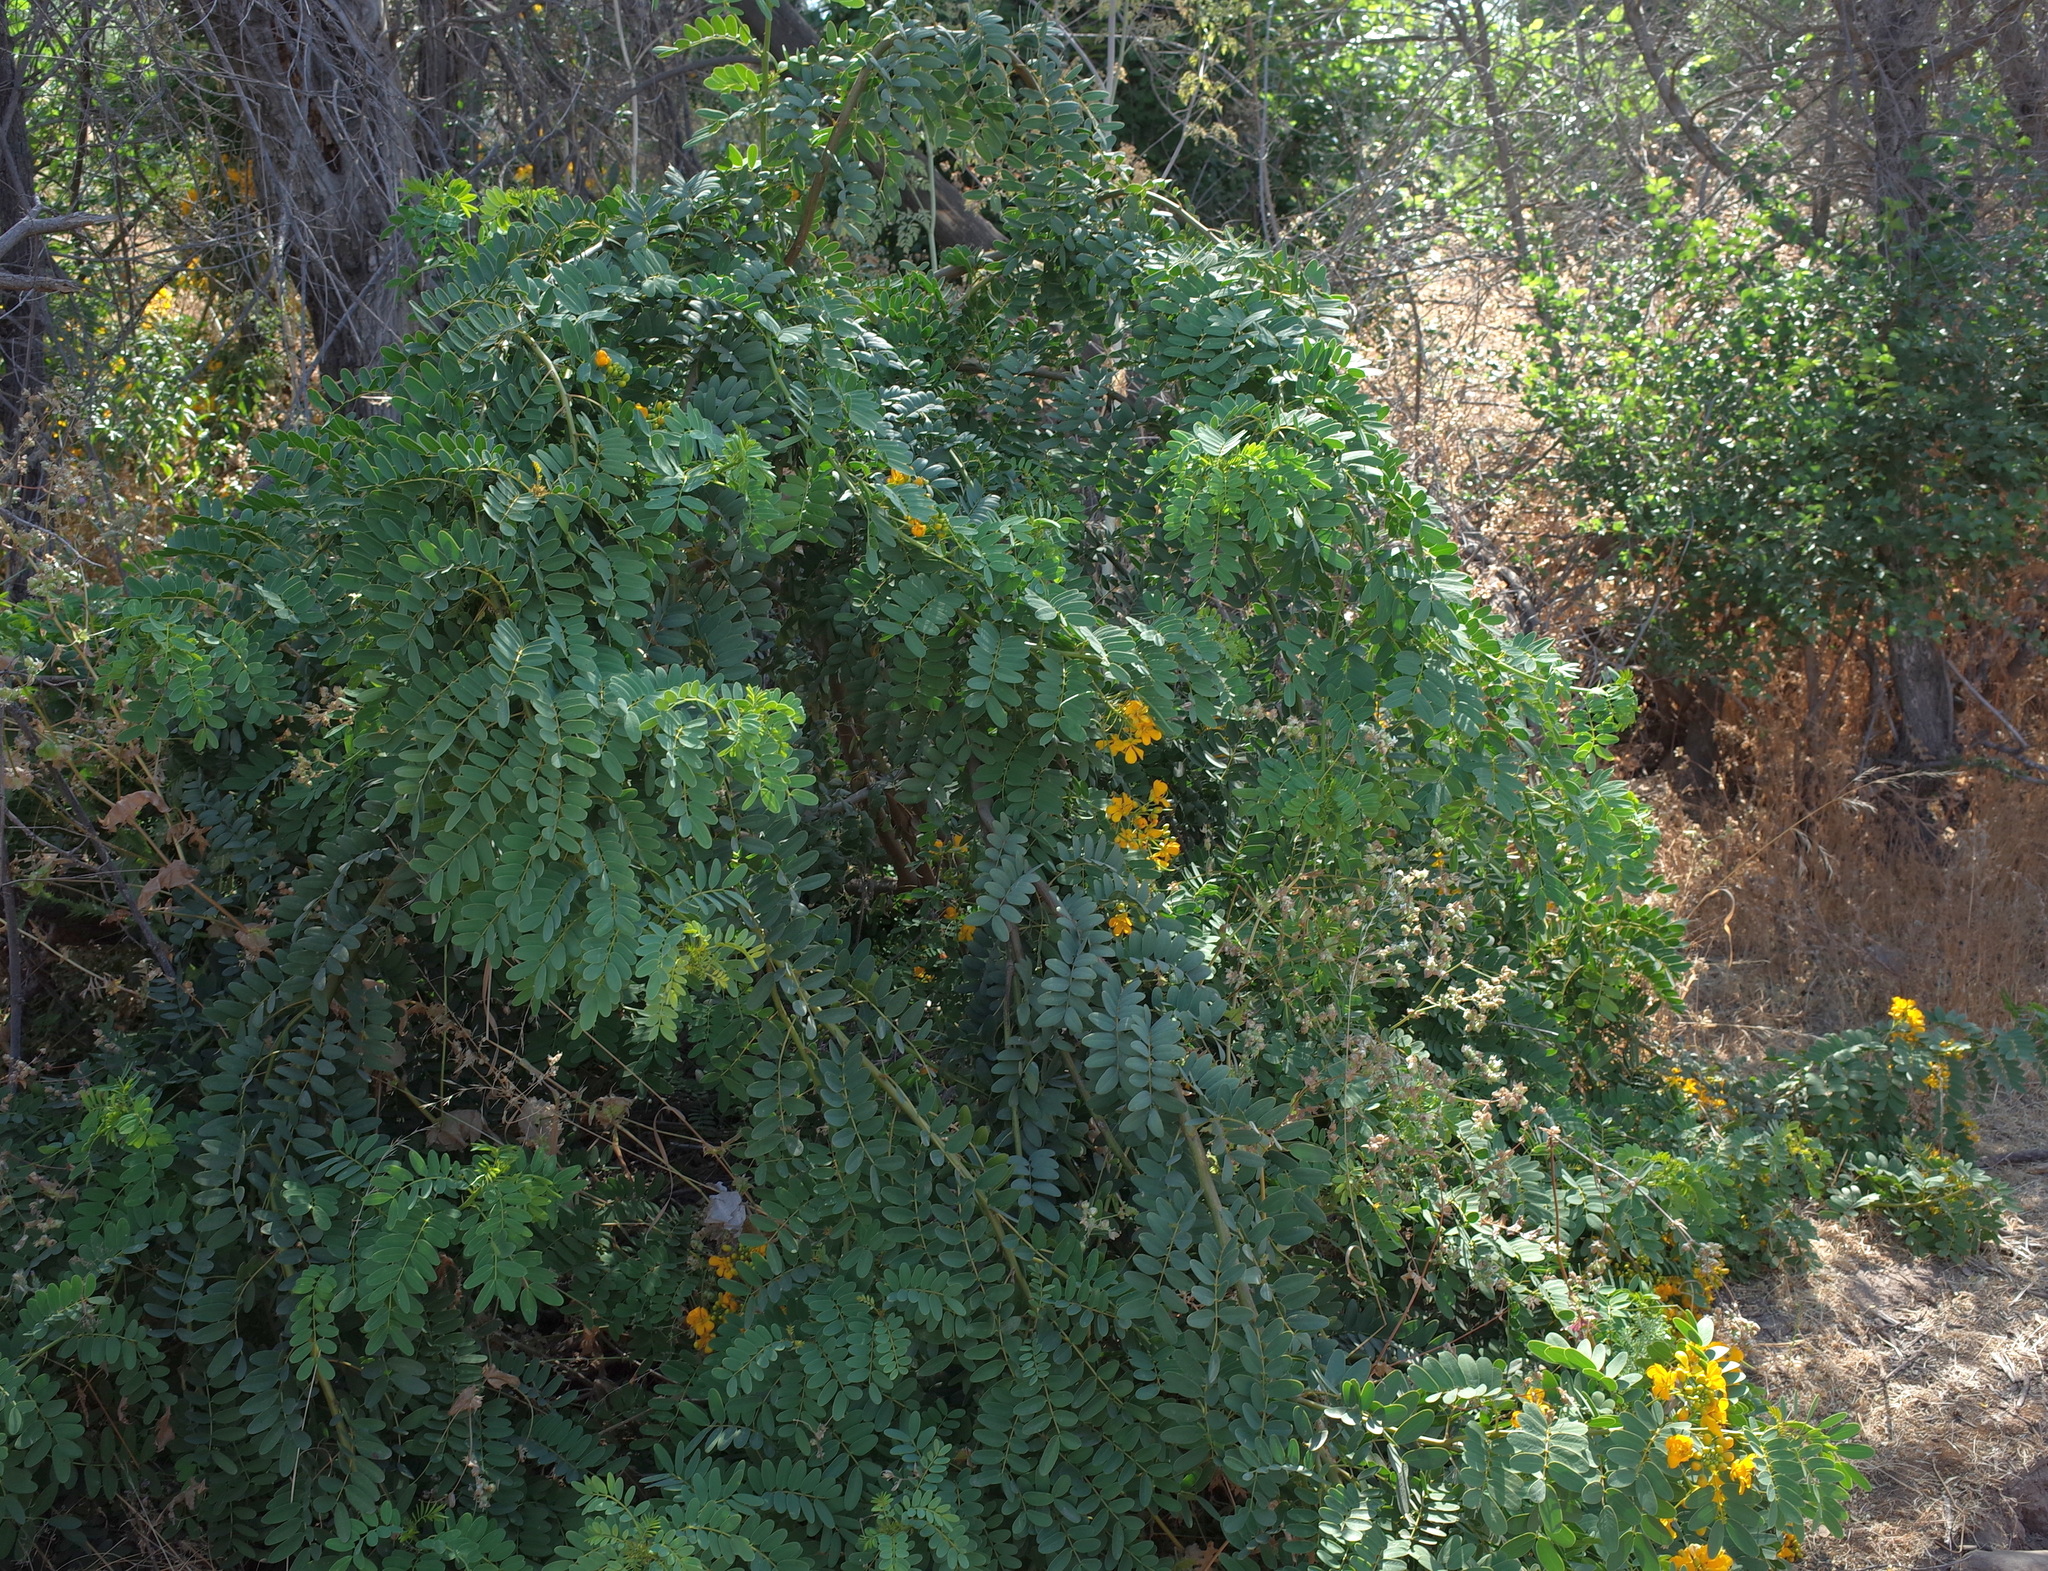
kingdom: Plantae
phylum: Tracheophyta
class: Magnoliopsida
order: Fabales
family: Fabaceae
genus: Senna
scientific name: Senna candolleana
